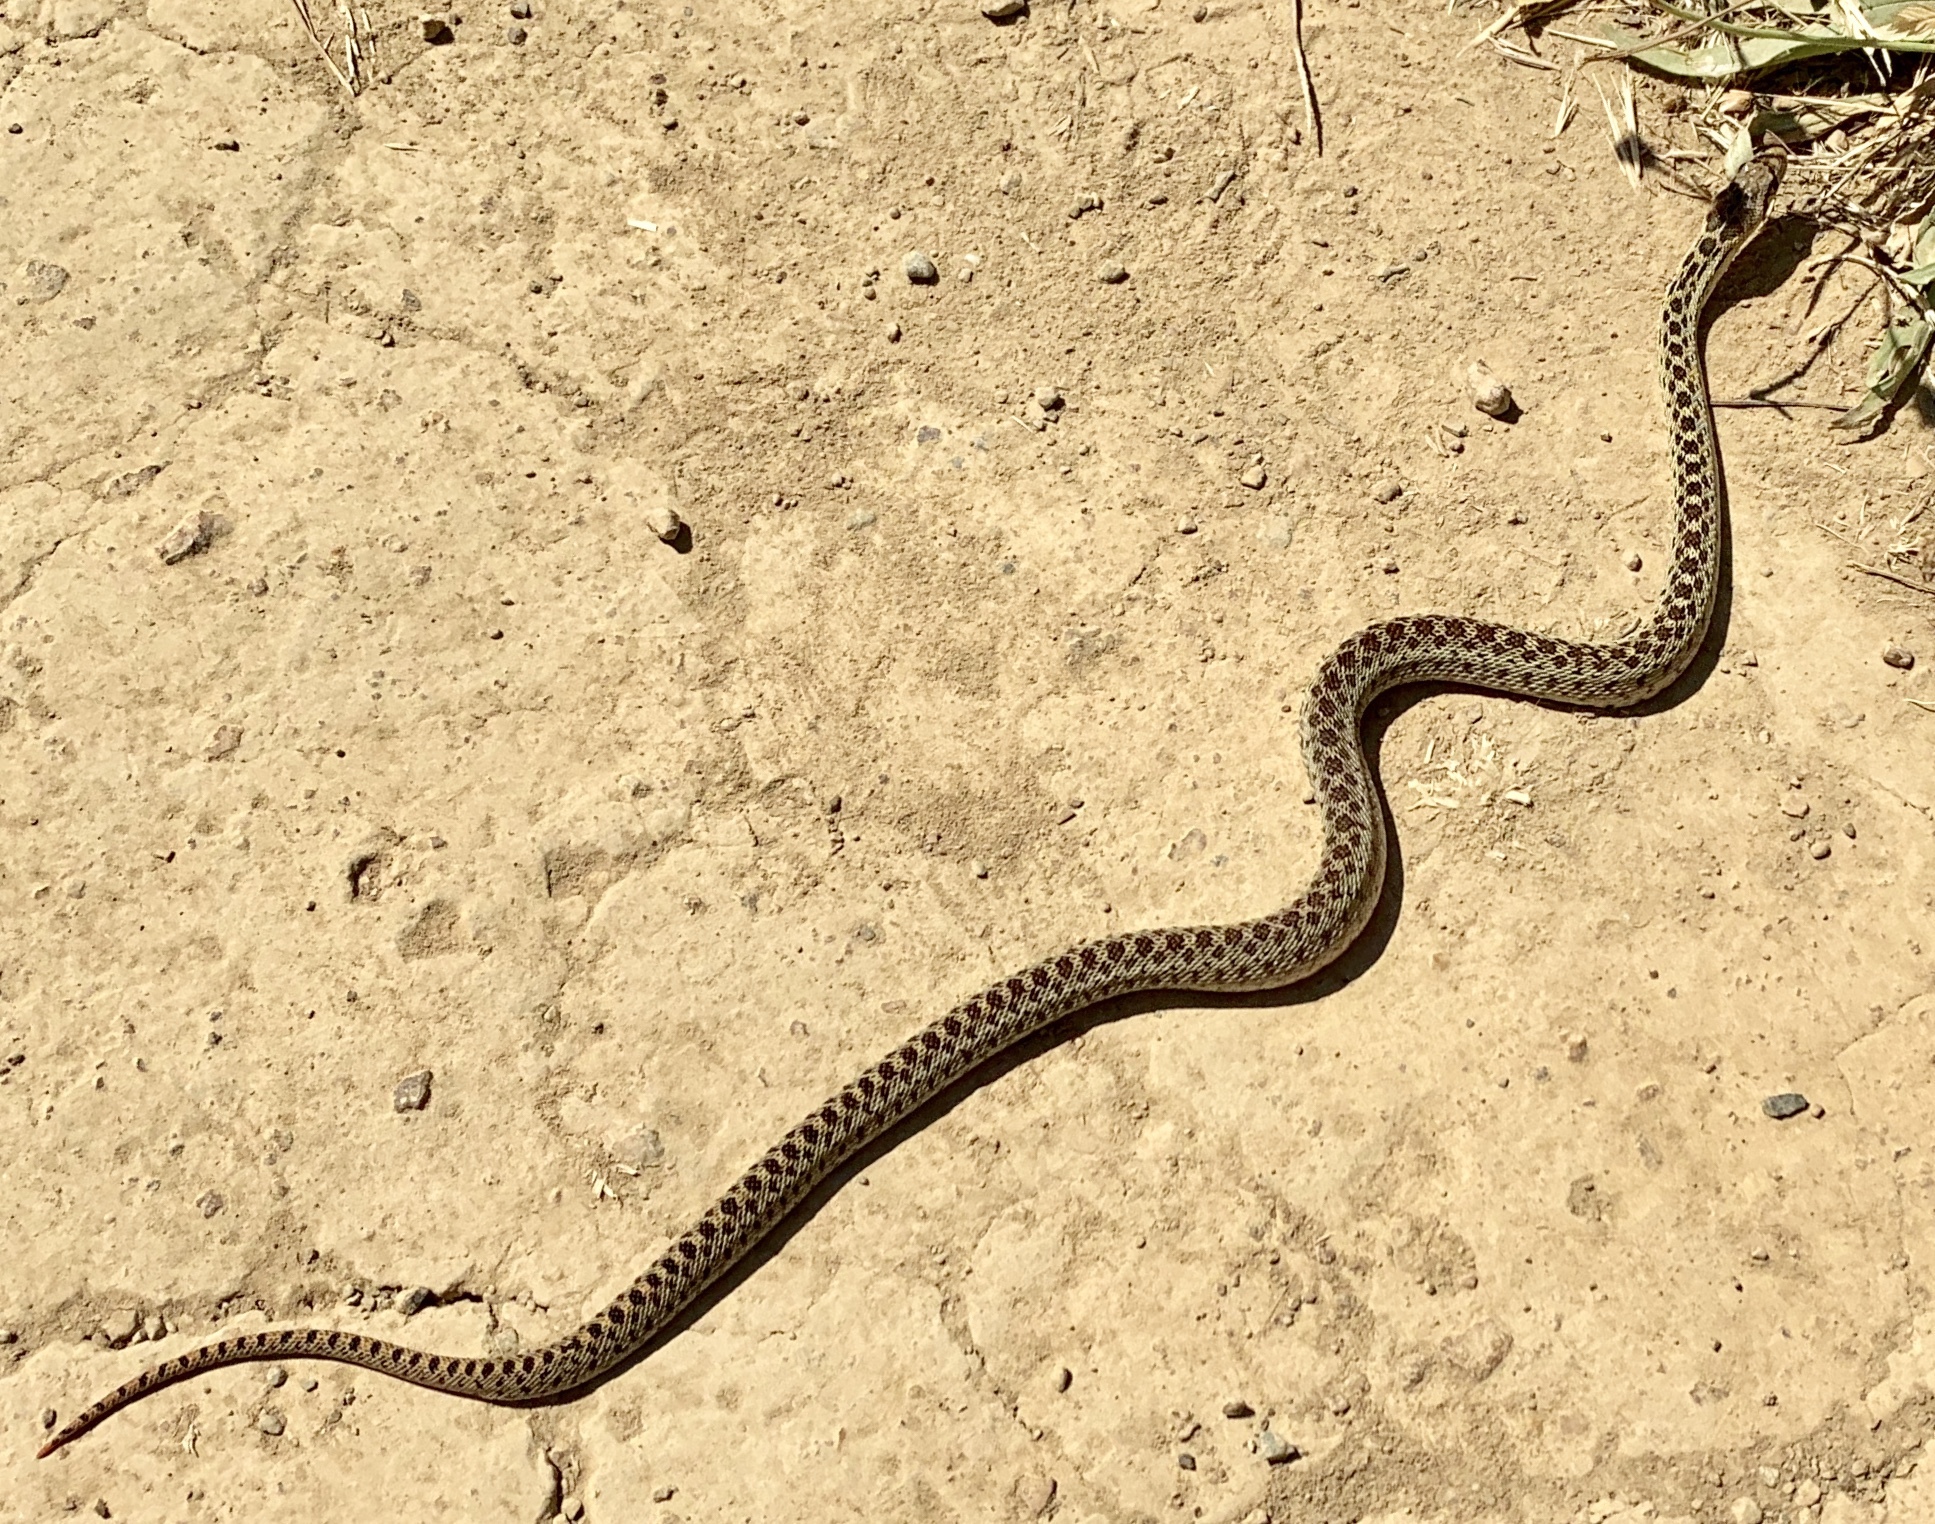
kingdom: Animalia
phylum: Chordata
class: Squamata
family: Colubridae
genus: Pituophis
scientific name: Pituophis catenifer
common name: Gopher snake
